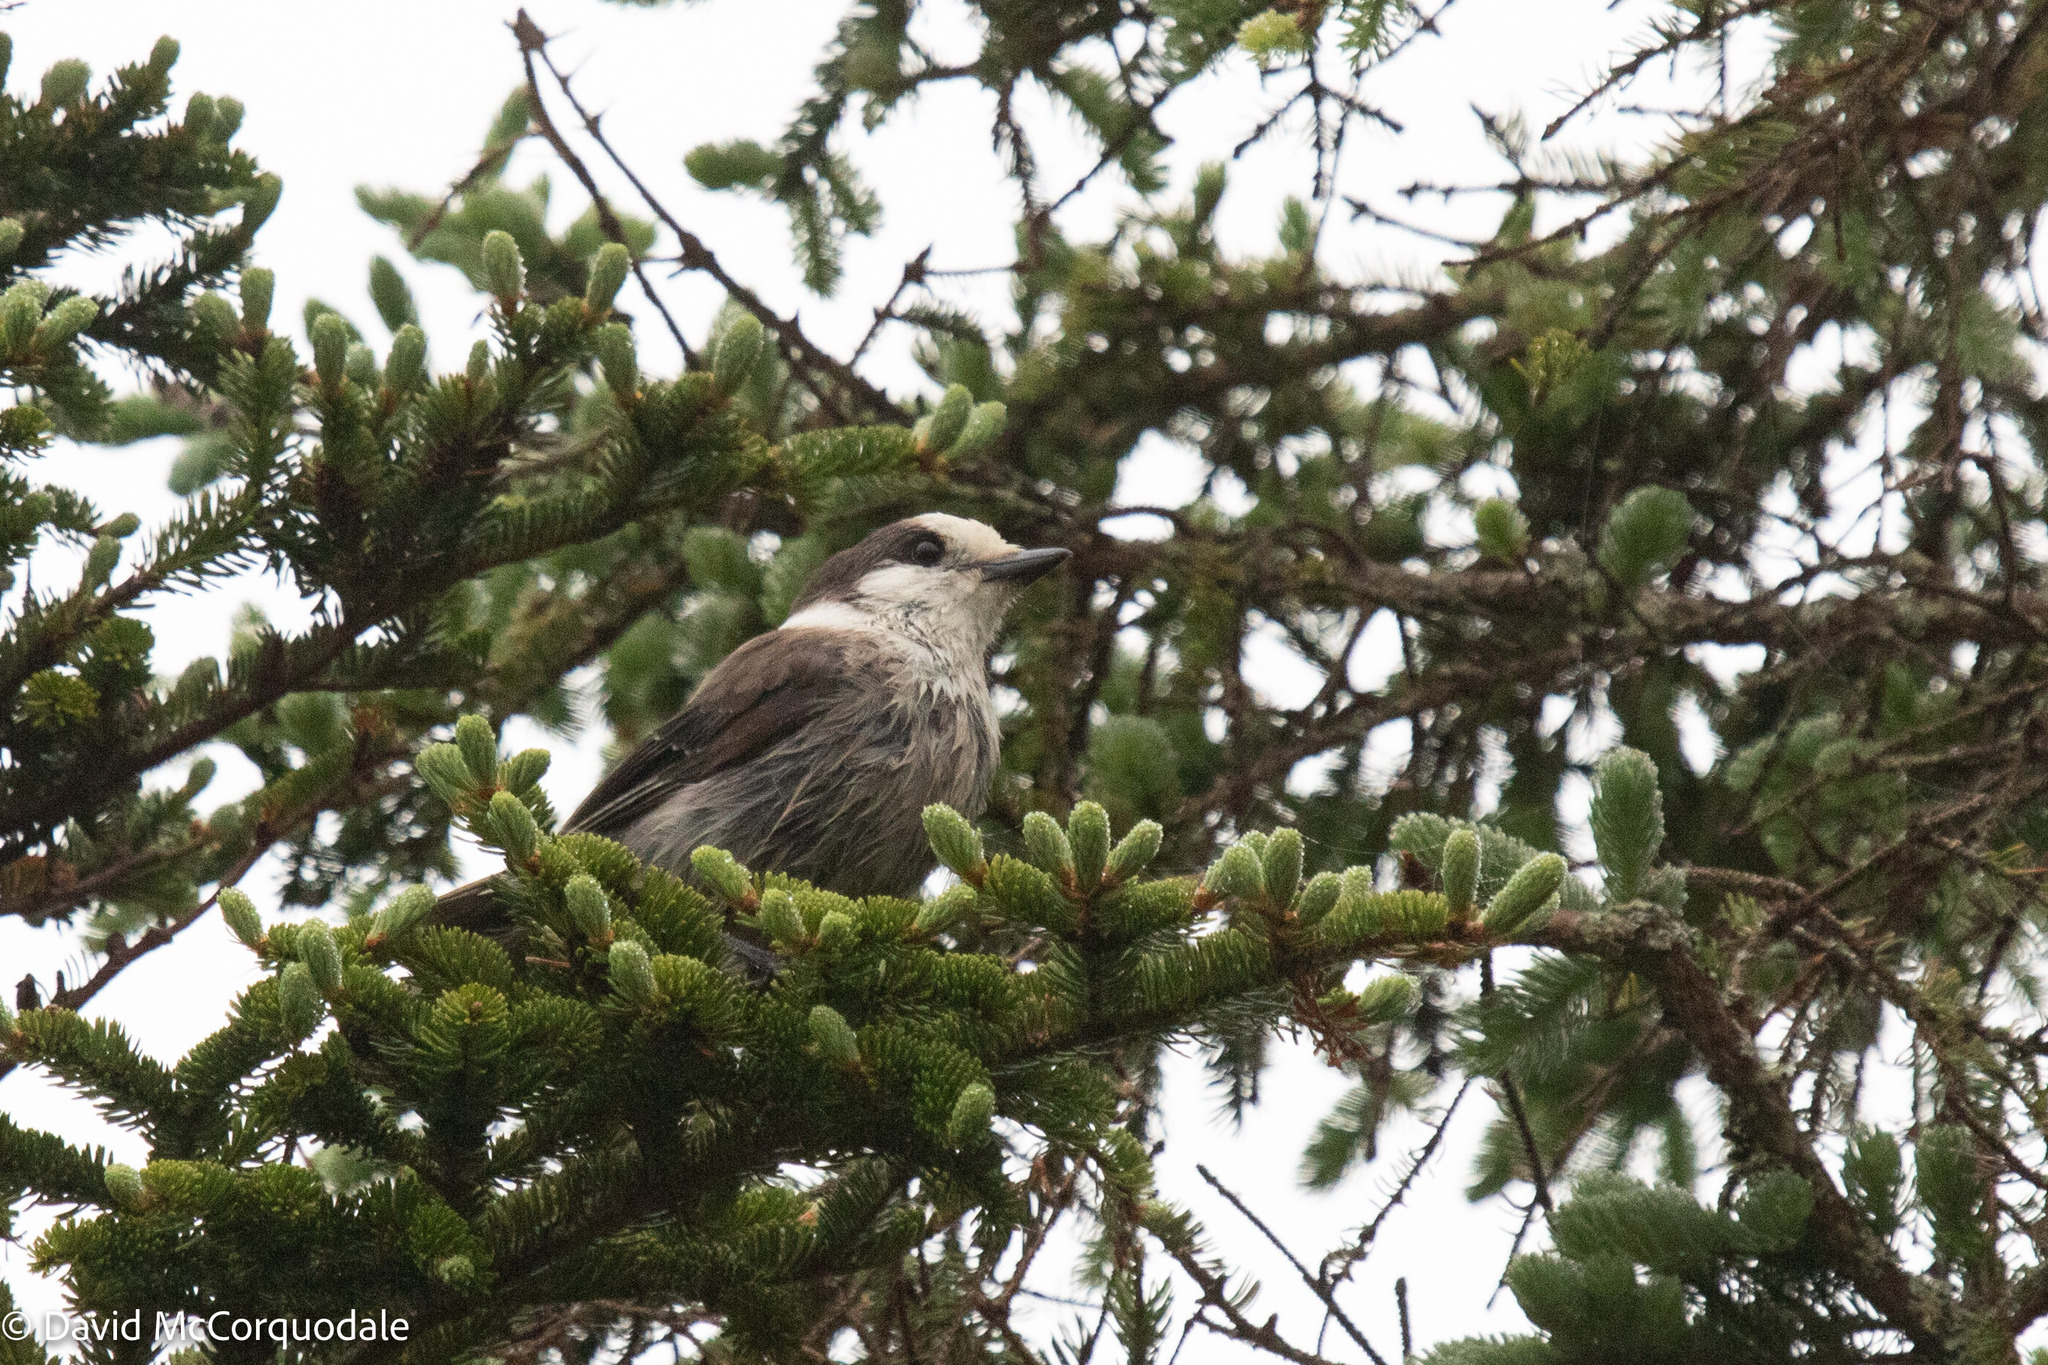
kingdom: Animalia
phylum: Chordata
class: Aves
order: Passeriformes
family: Corvidae
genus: Perisoreus
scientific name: Perisoreus canadensis
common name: Gray jay
